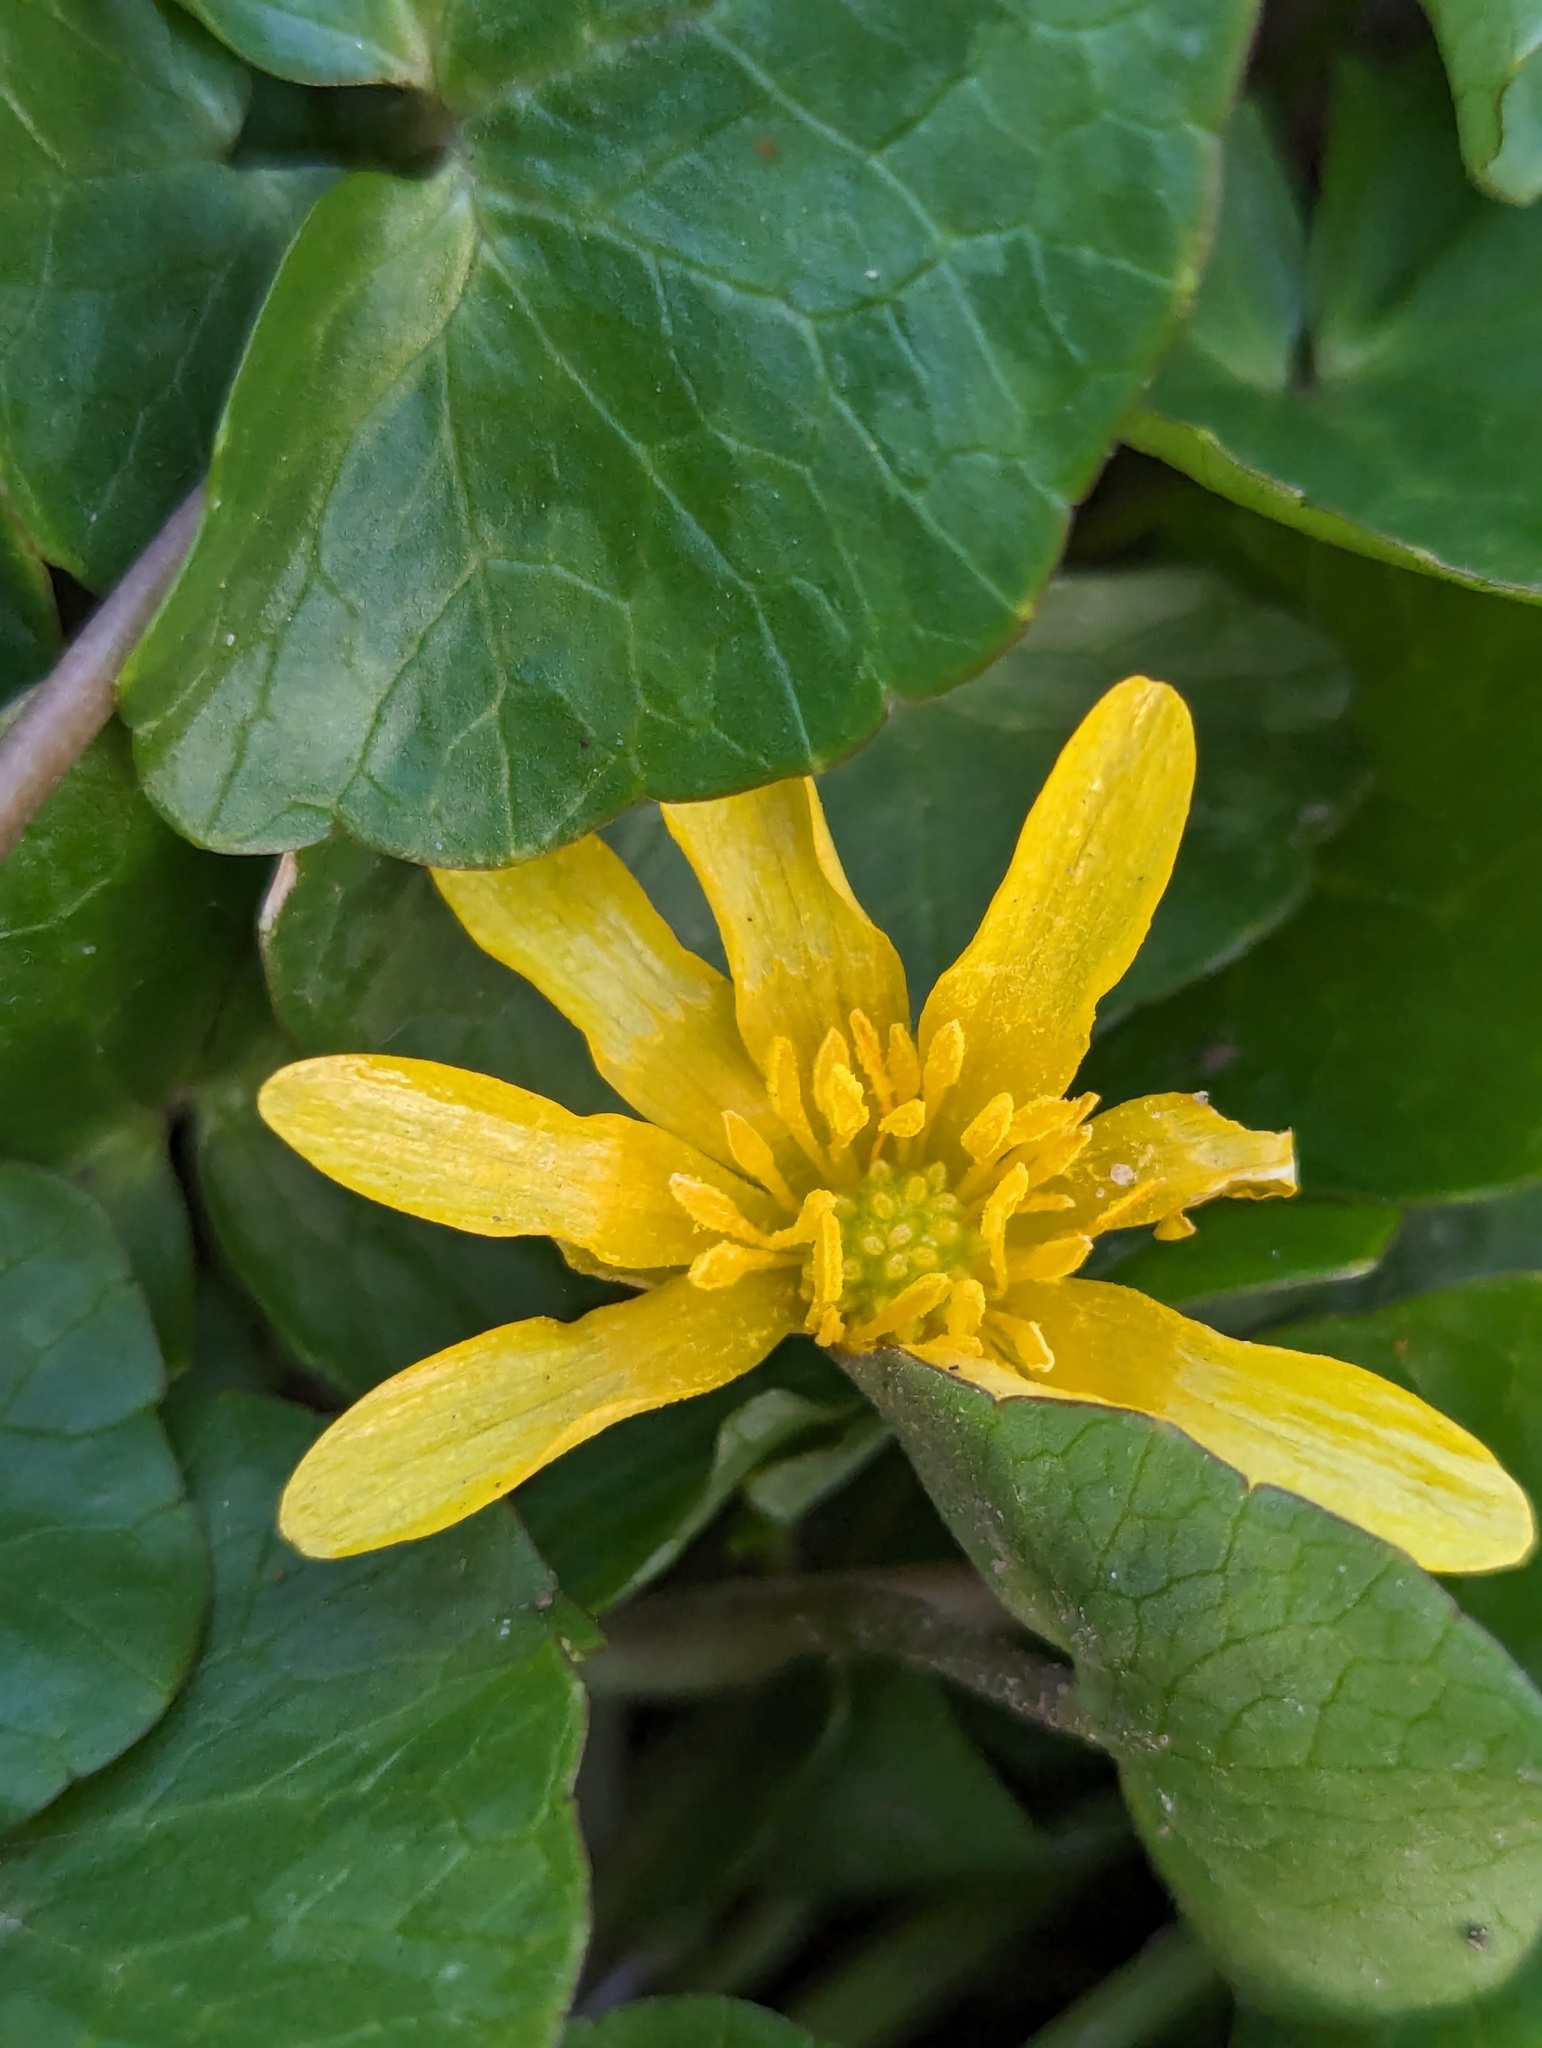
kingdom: Plantae
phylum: Tracheophyta
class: Magnoliopsida
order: Ranunculales
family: Ranunculaceae
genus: Ficaria
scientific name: Ficaria verna
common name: Lesser celandine
